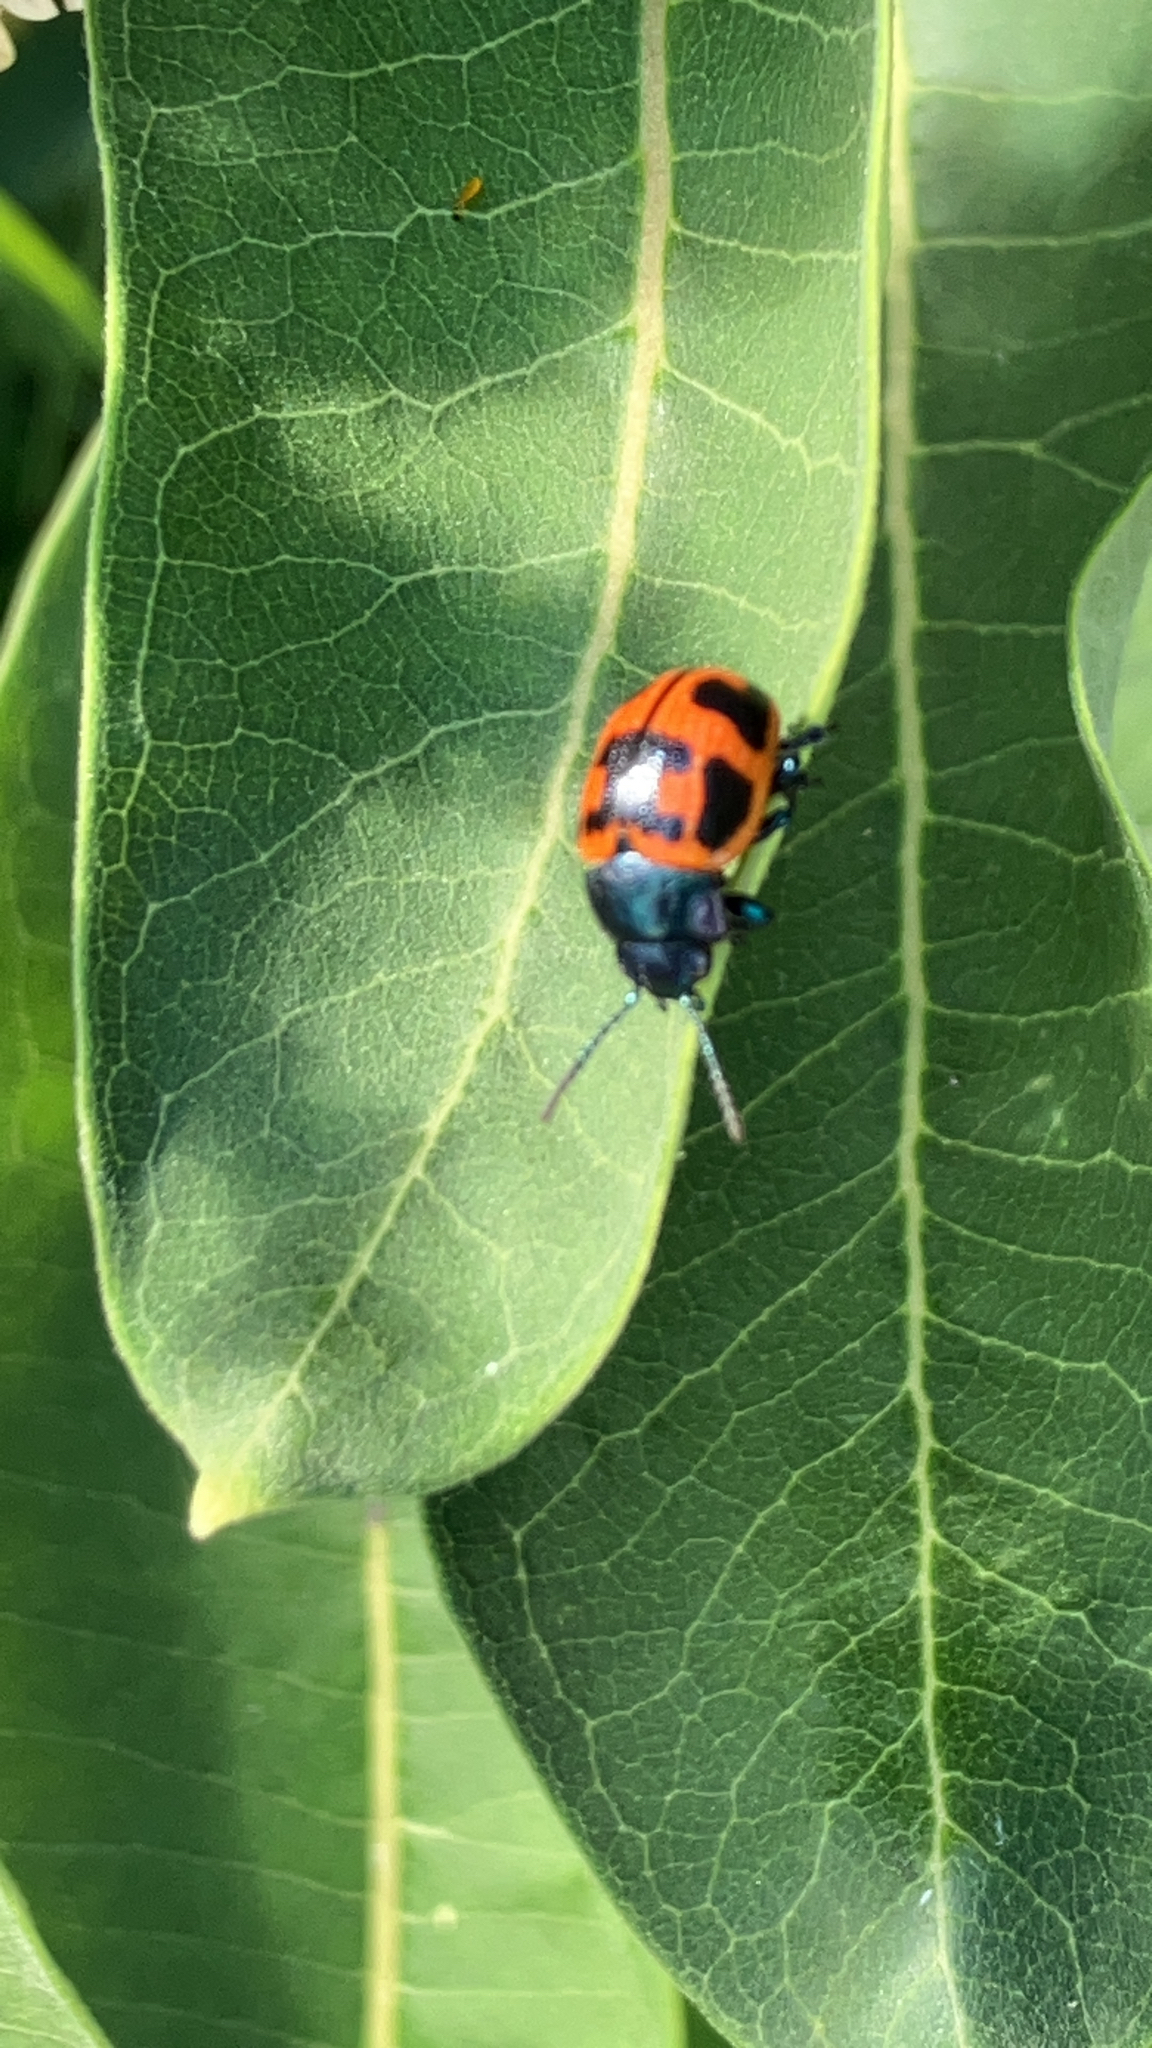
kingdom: Animalia
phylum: Arthropoda
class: Insecta
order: Coleoptera
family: Chrysomelidae
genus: Labidomera
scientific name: Labidomera clivicollis
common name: Swamp milkweed leaf beetle
